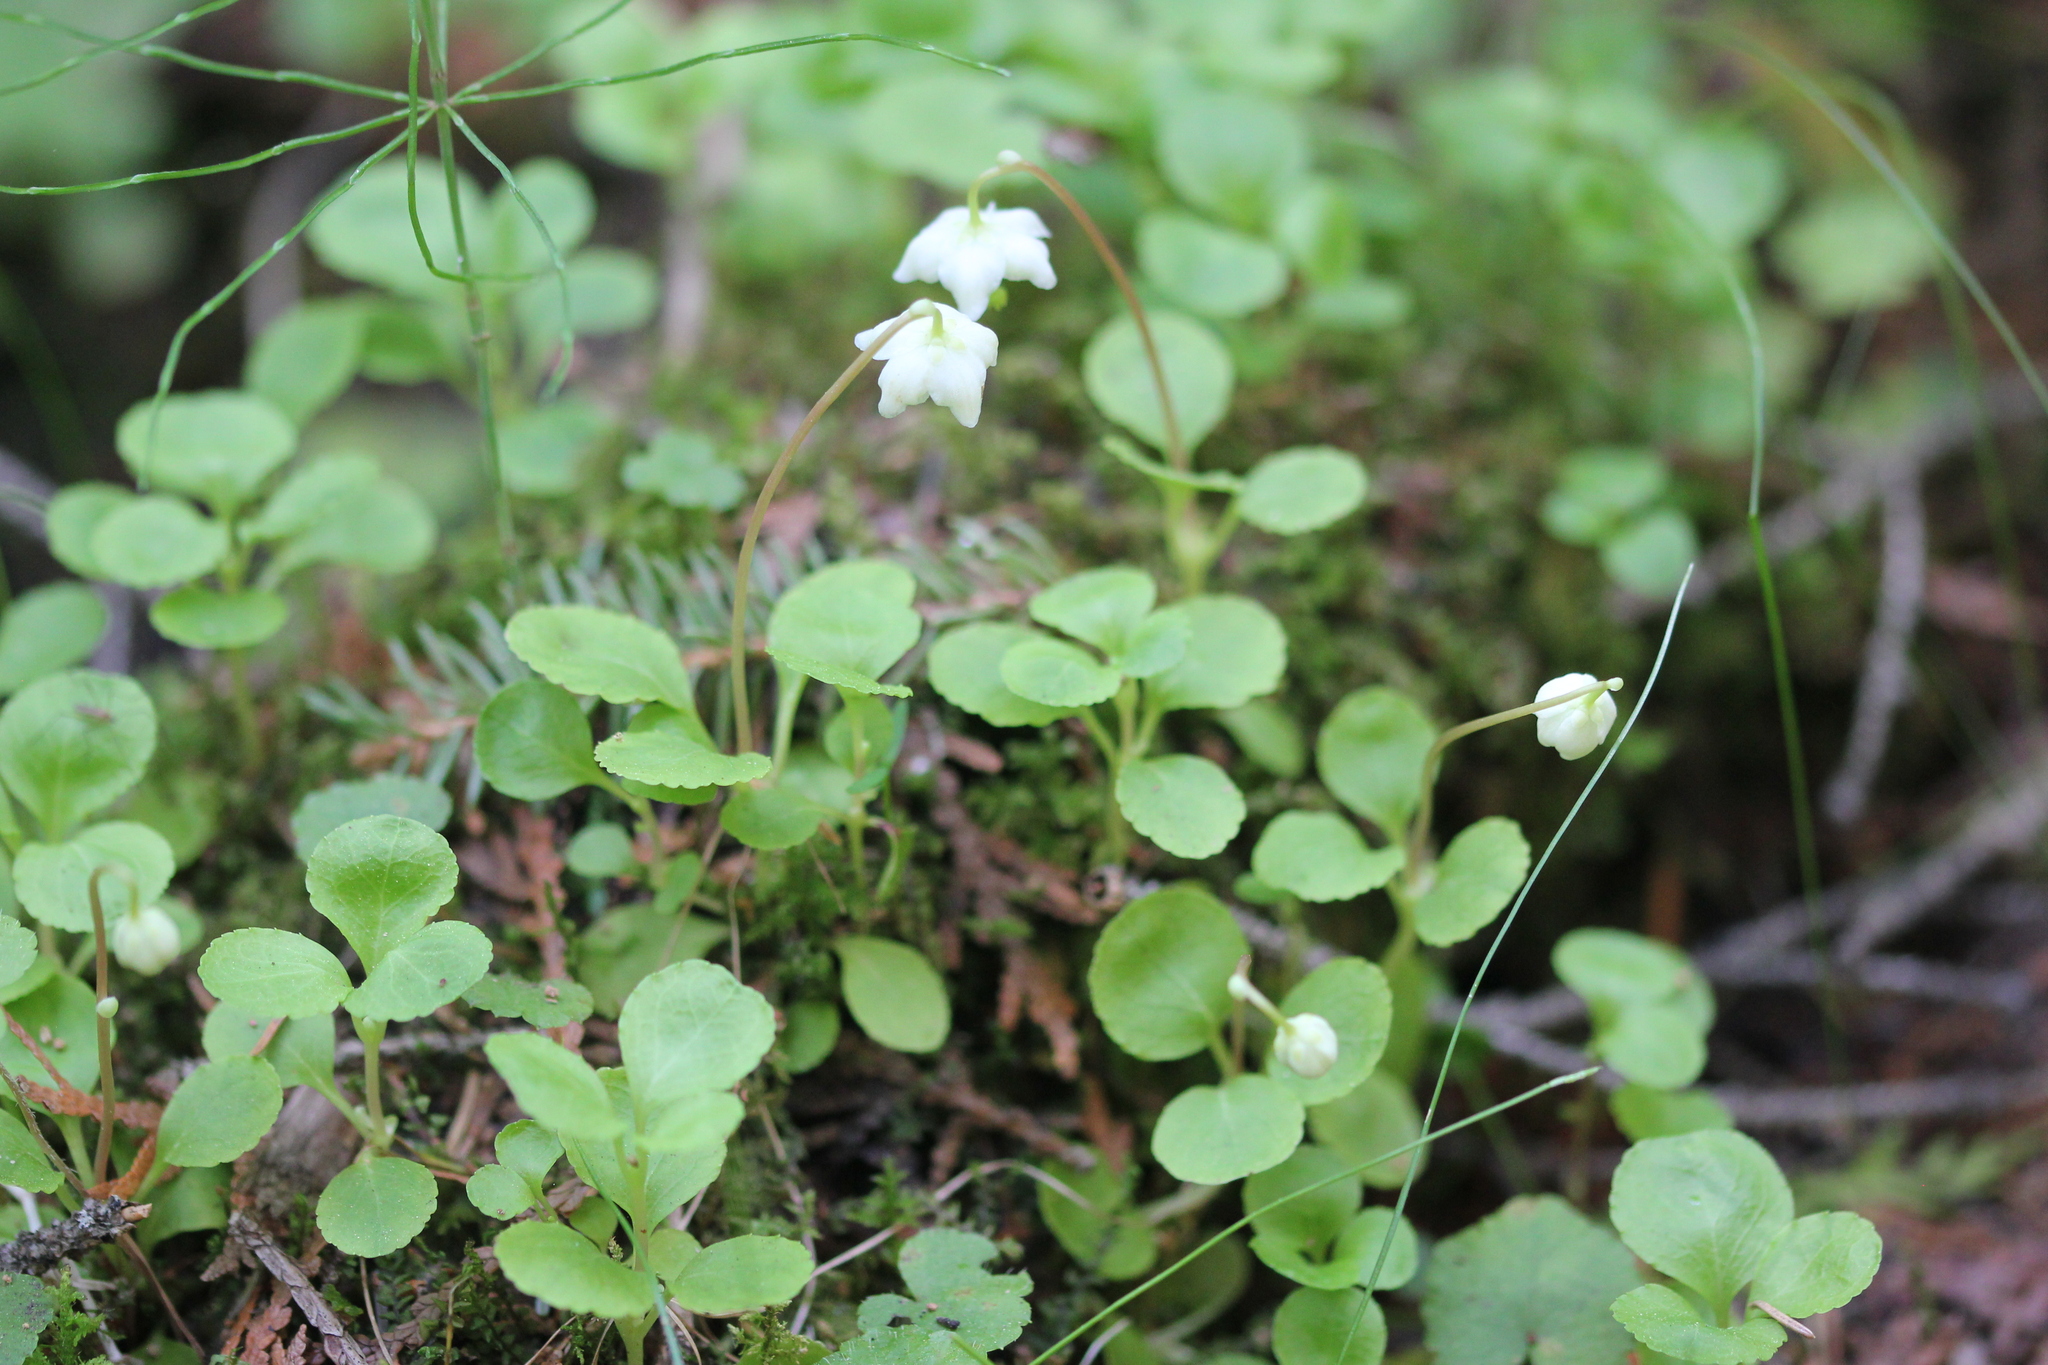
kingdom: Plantae
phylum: Tracheophyta
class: Magnoliopsida
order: Ericales
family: Ericaceae
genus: Moneses
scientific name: Moneses uniflora
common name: One-flowered wintergreen
